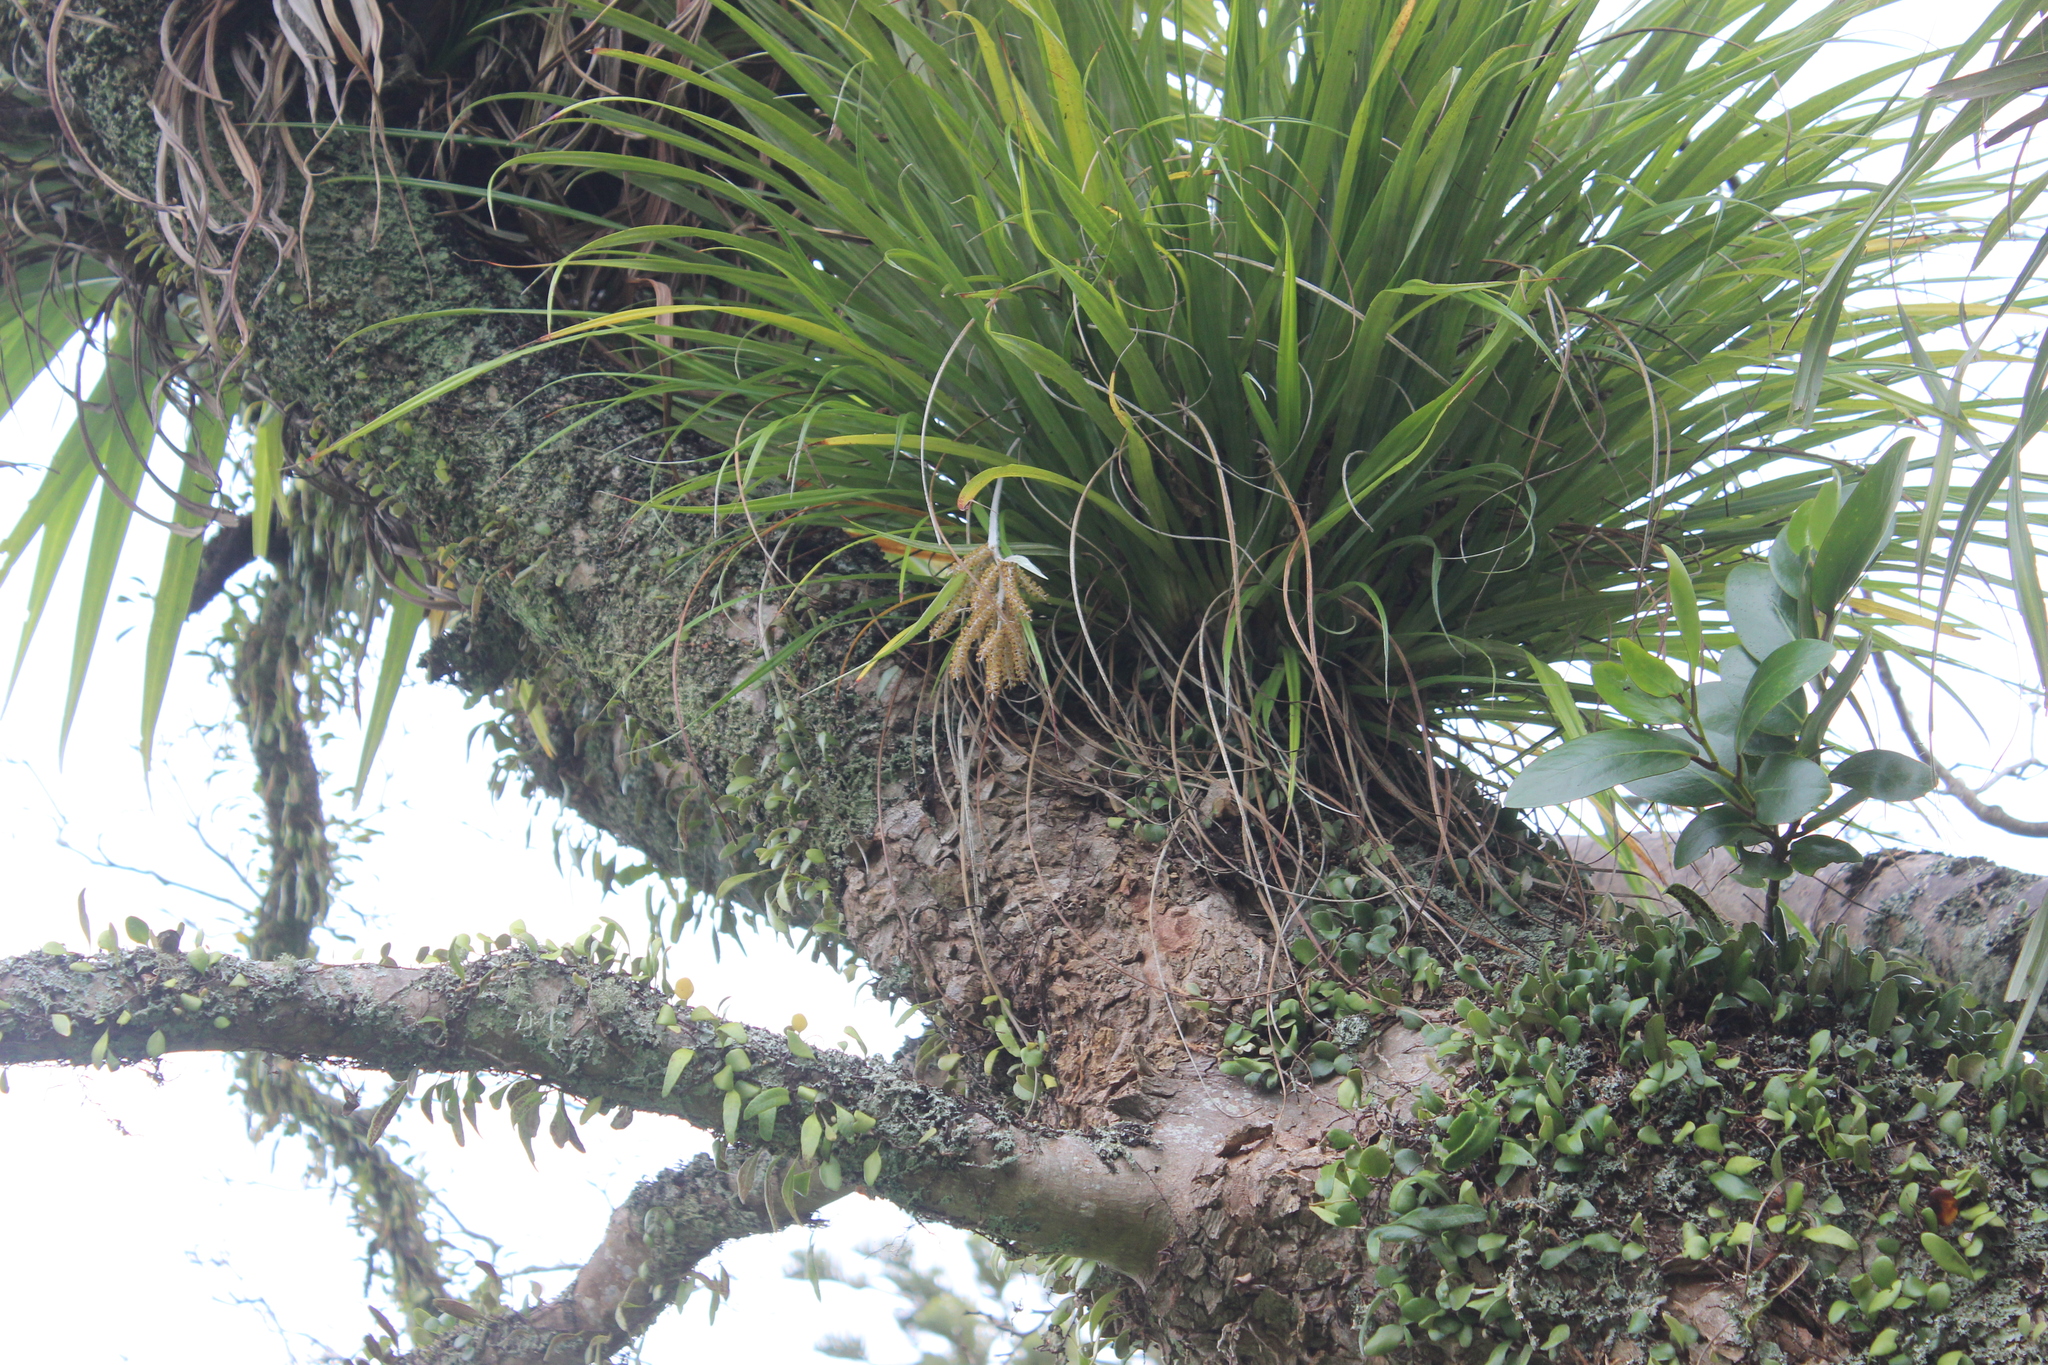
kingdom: Plantae
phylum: Tracheophyta
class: Liliopsida
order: Asparagales
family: Asteliaceae
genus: Astelia
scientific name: Astelia solandri
